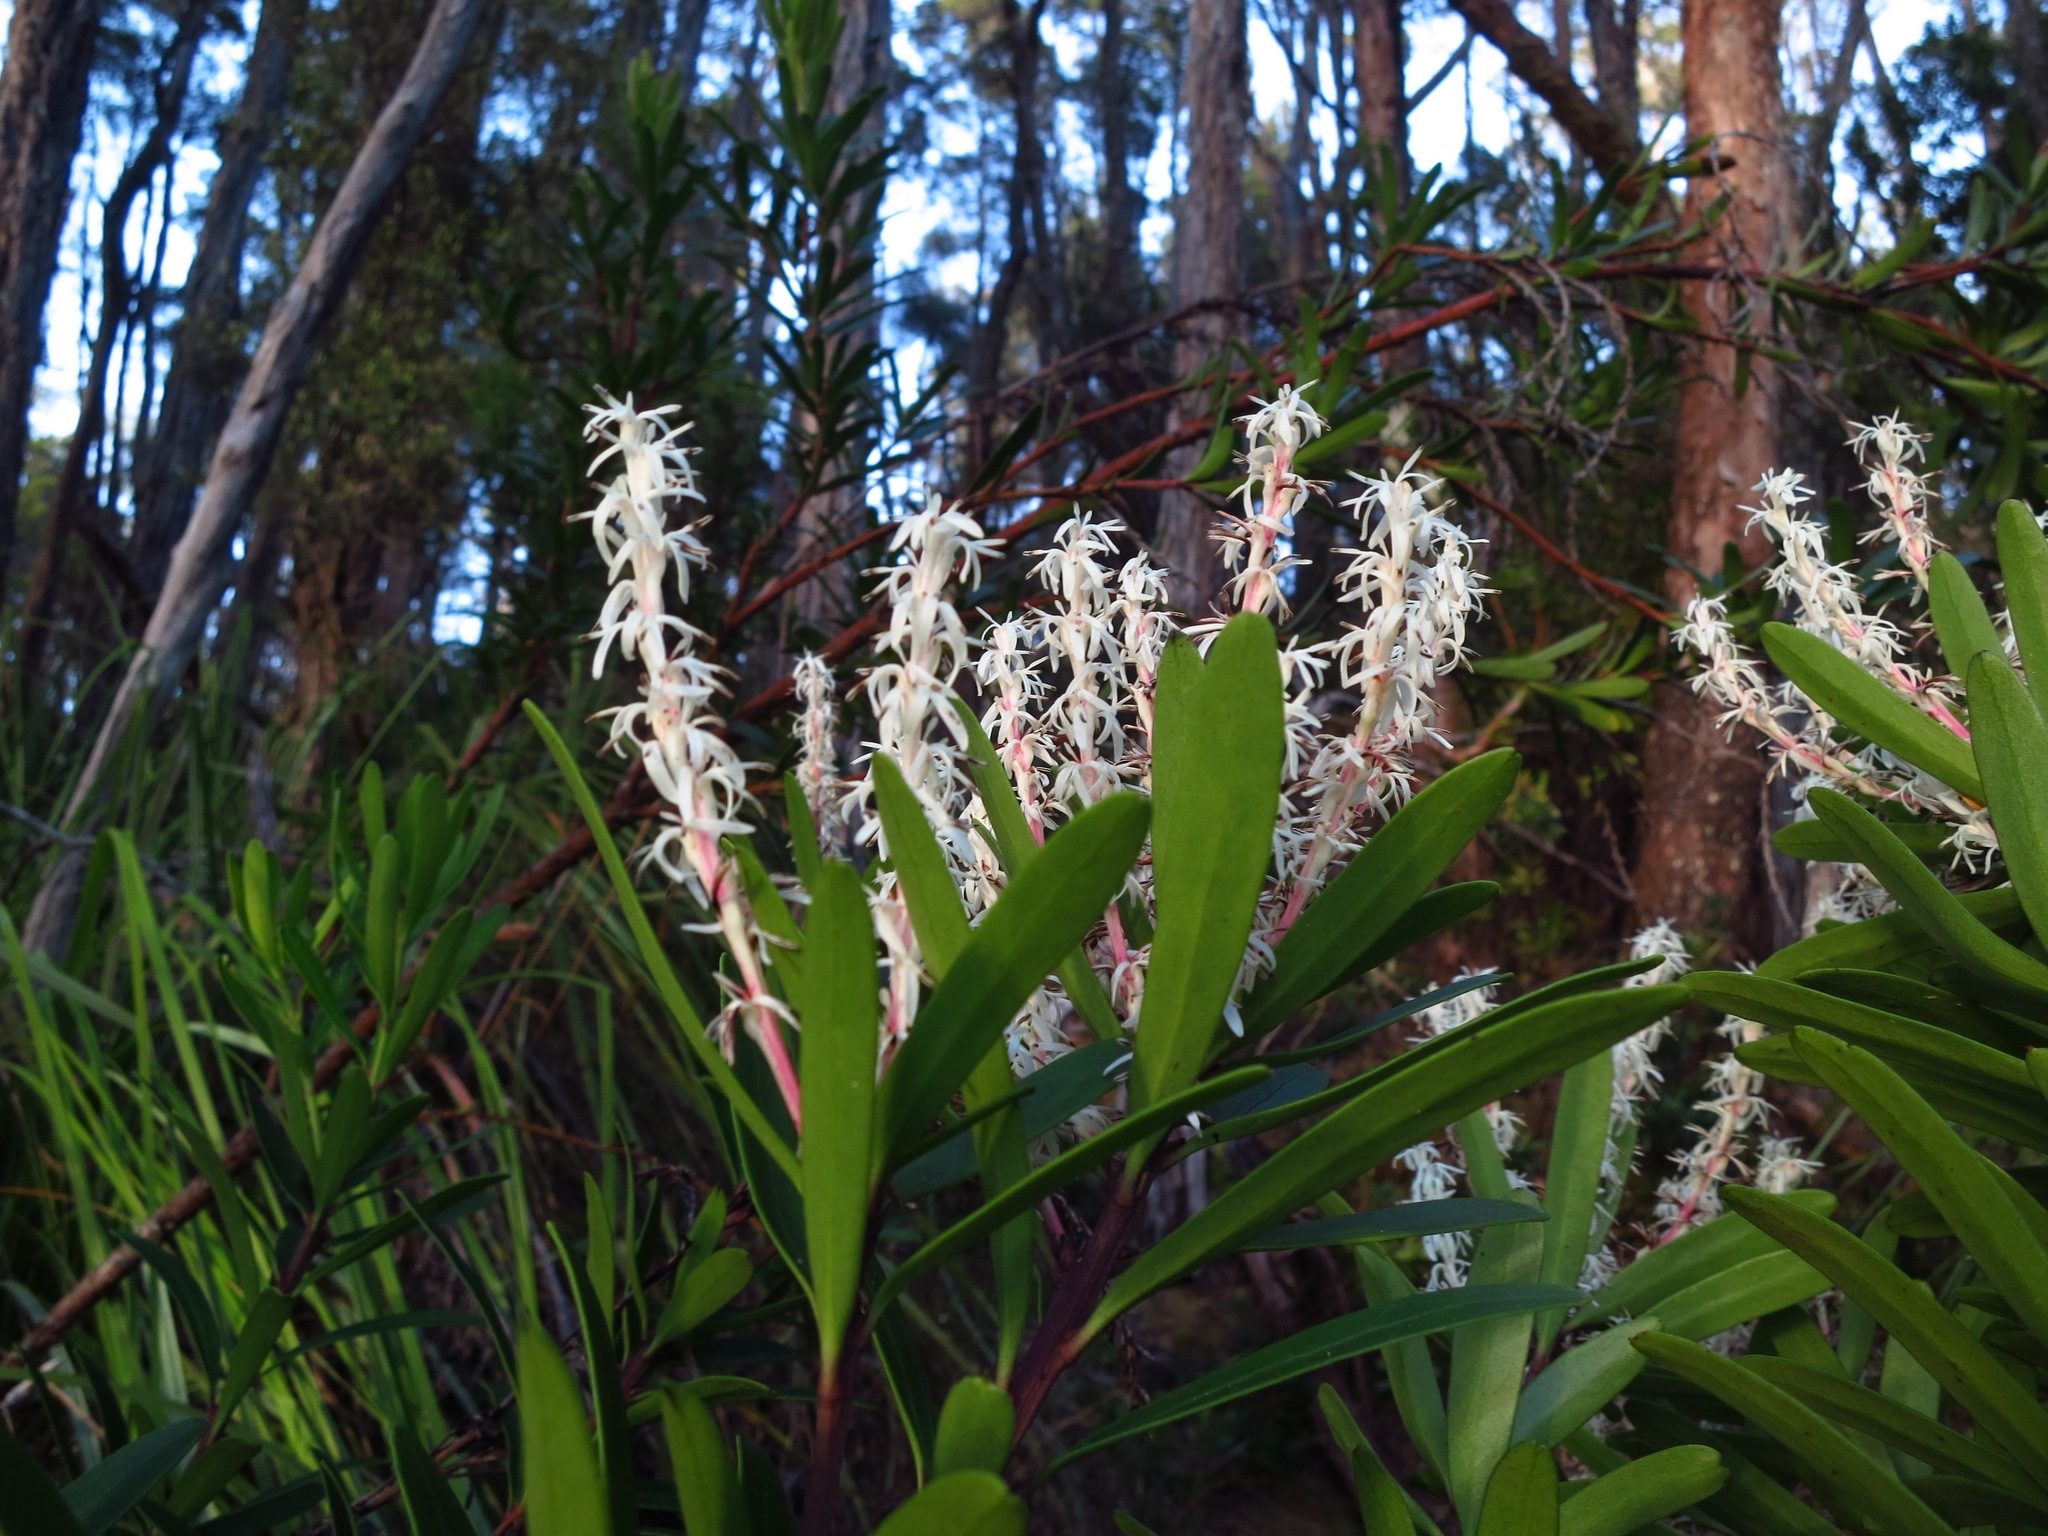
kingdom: Plantae
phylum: Tracheophyta
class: Magnoliopsida
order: Proteales
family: Proteaceae
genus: Agastachys
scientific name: Agastachys odorata
